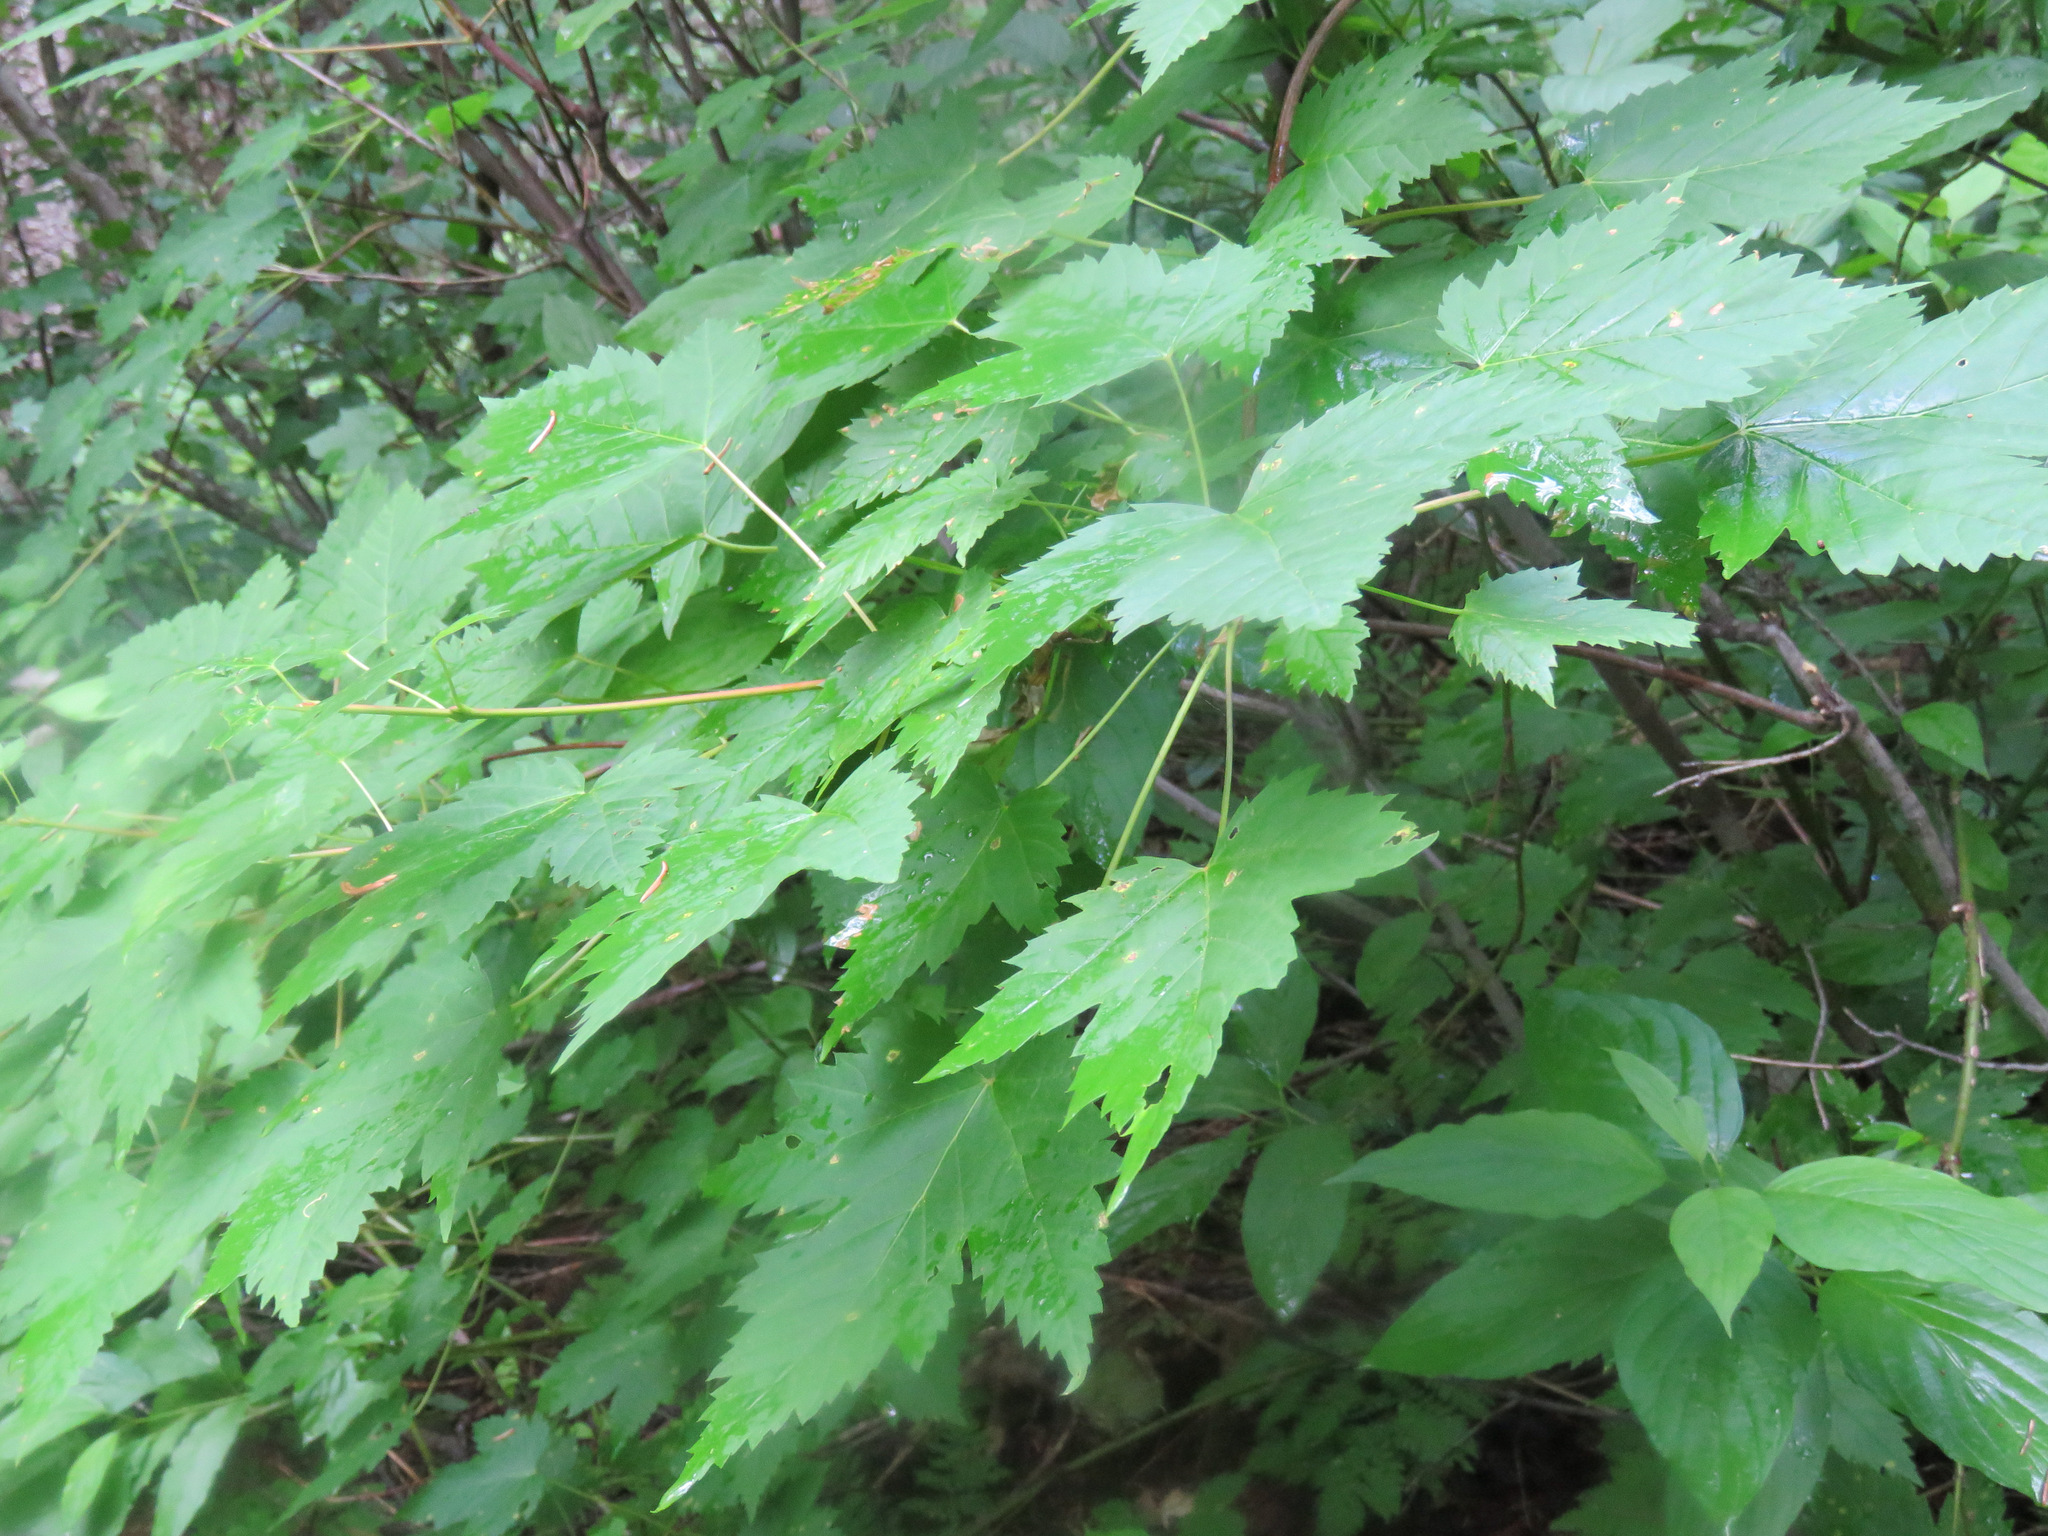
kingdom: Plantae
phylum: Tracheophyta
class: Magnoliopsida
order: Sapindales
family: Sapindaceae
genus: Acer
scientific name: Acer glabrum
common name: Rocky mountain maple
